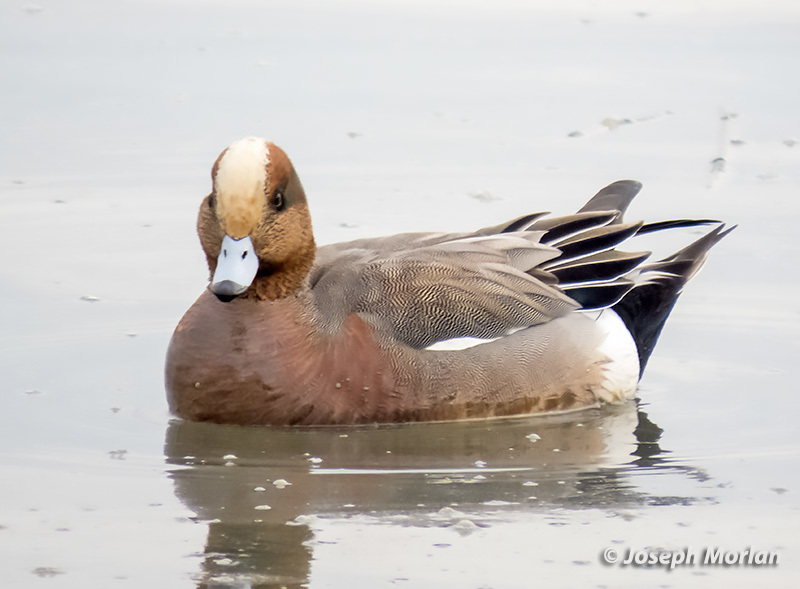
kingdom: Animalia
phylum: Chordata
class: Aves
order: Anseriformes
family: Anatidae
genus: Mareca
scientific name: Mareca
